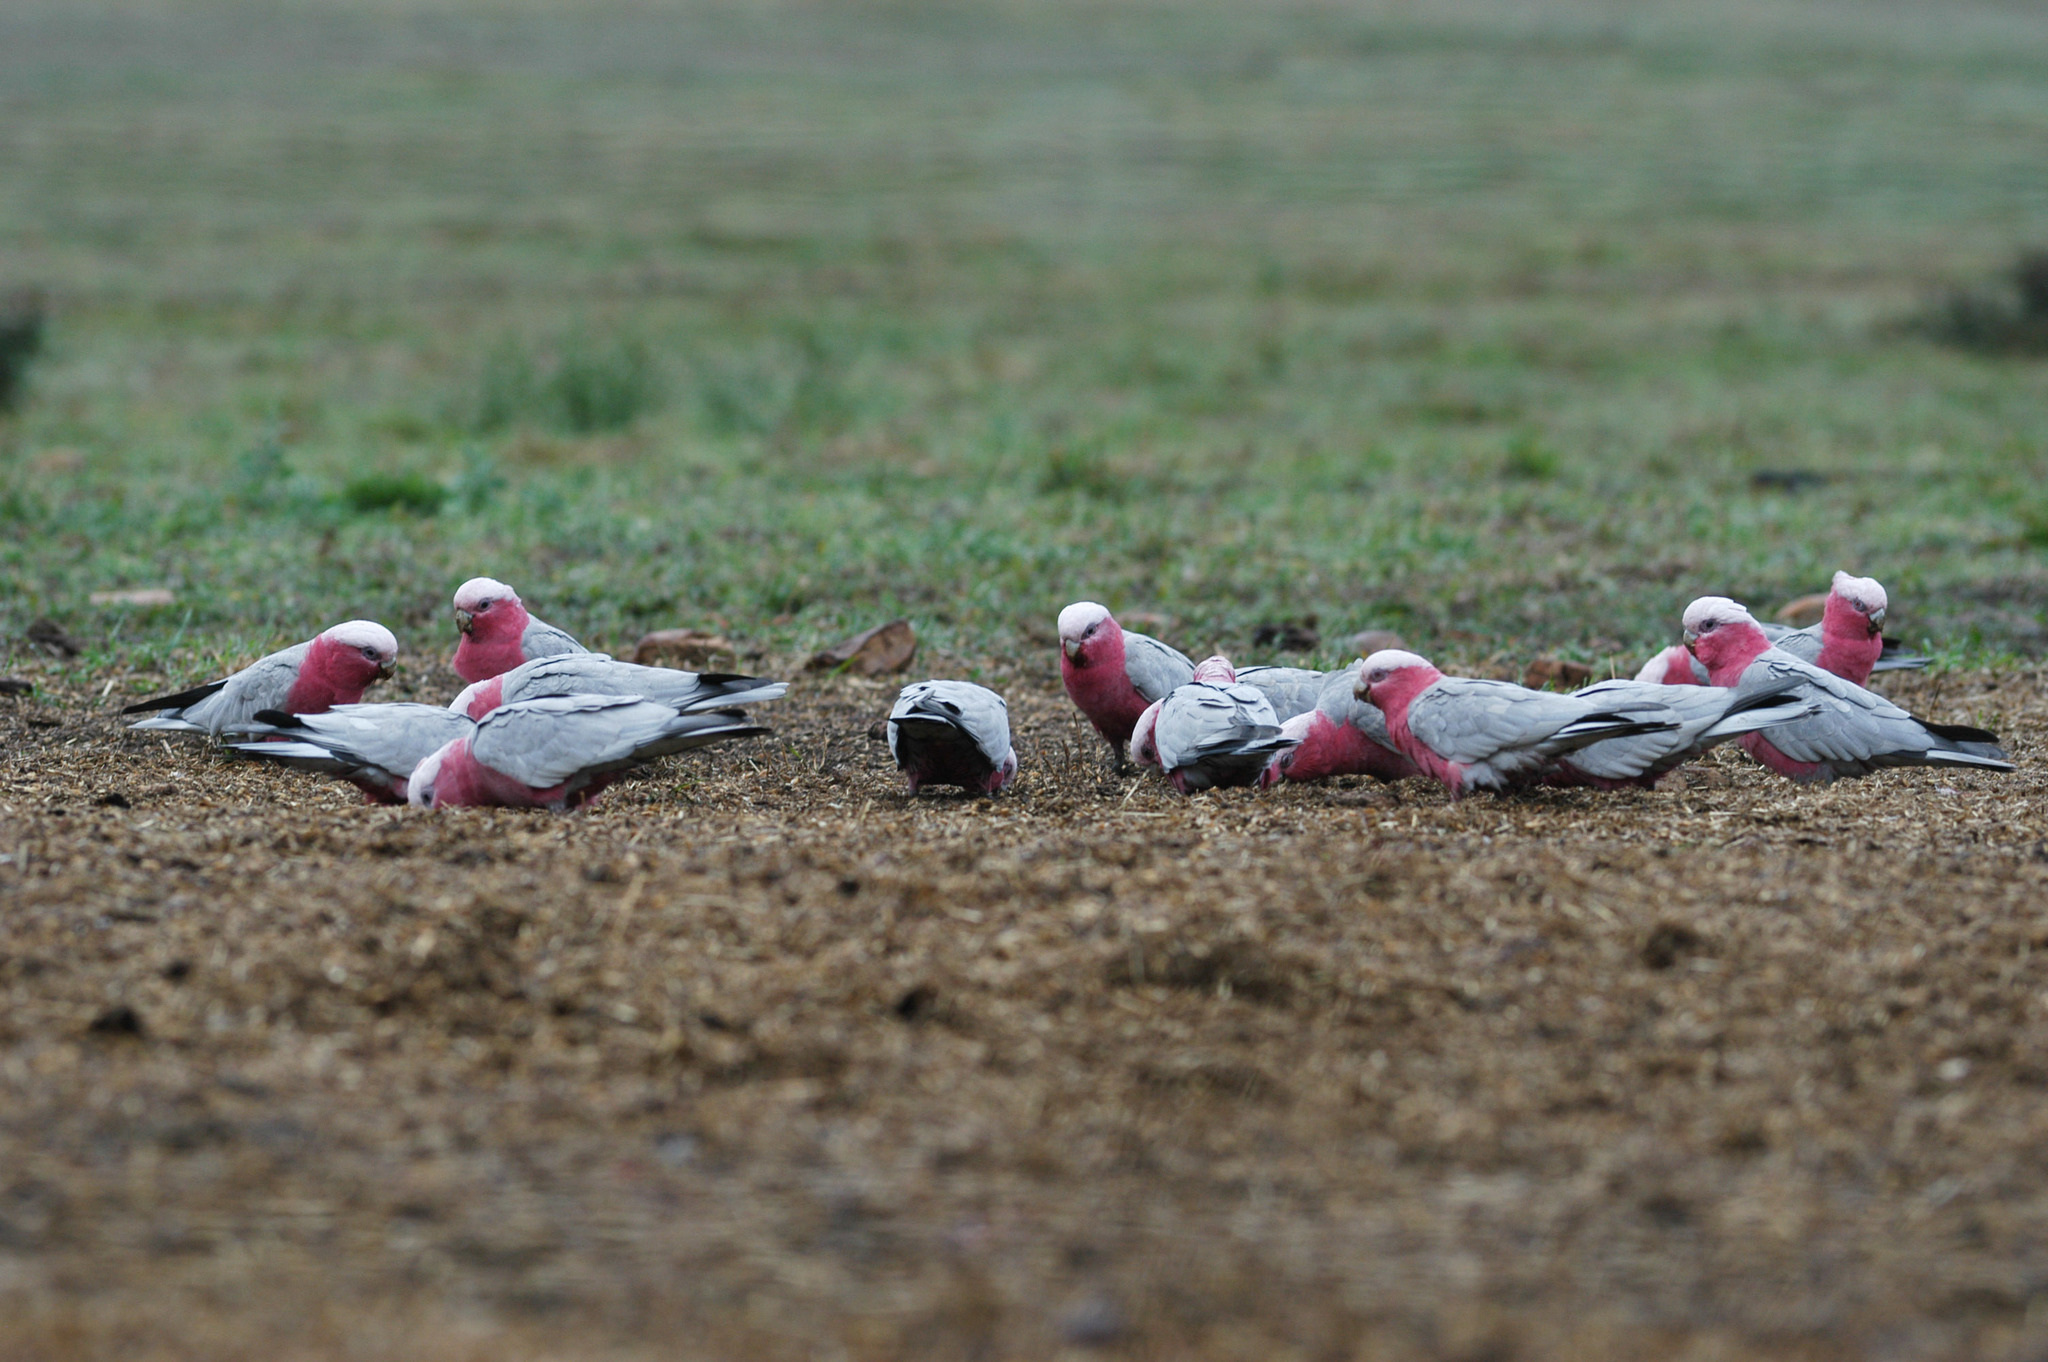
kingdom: Animalia
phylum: Chordata
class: Aves
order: Psittaciformes
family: Psittacidae
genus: Eolophus
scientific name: Eolophus roseicapilla
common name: Galah
